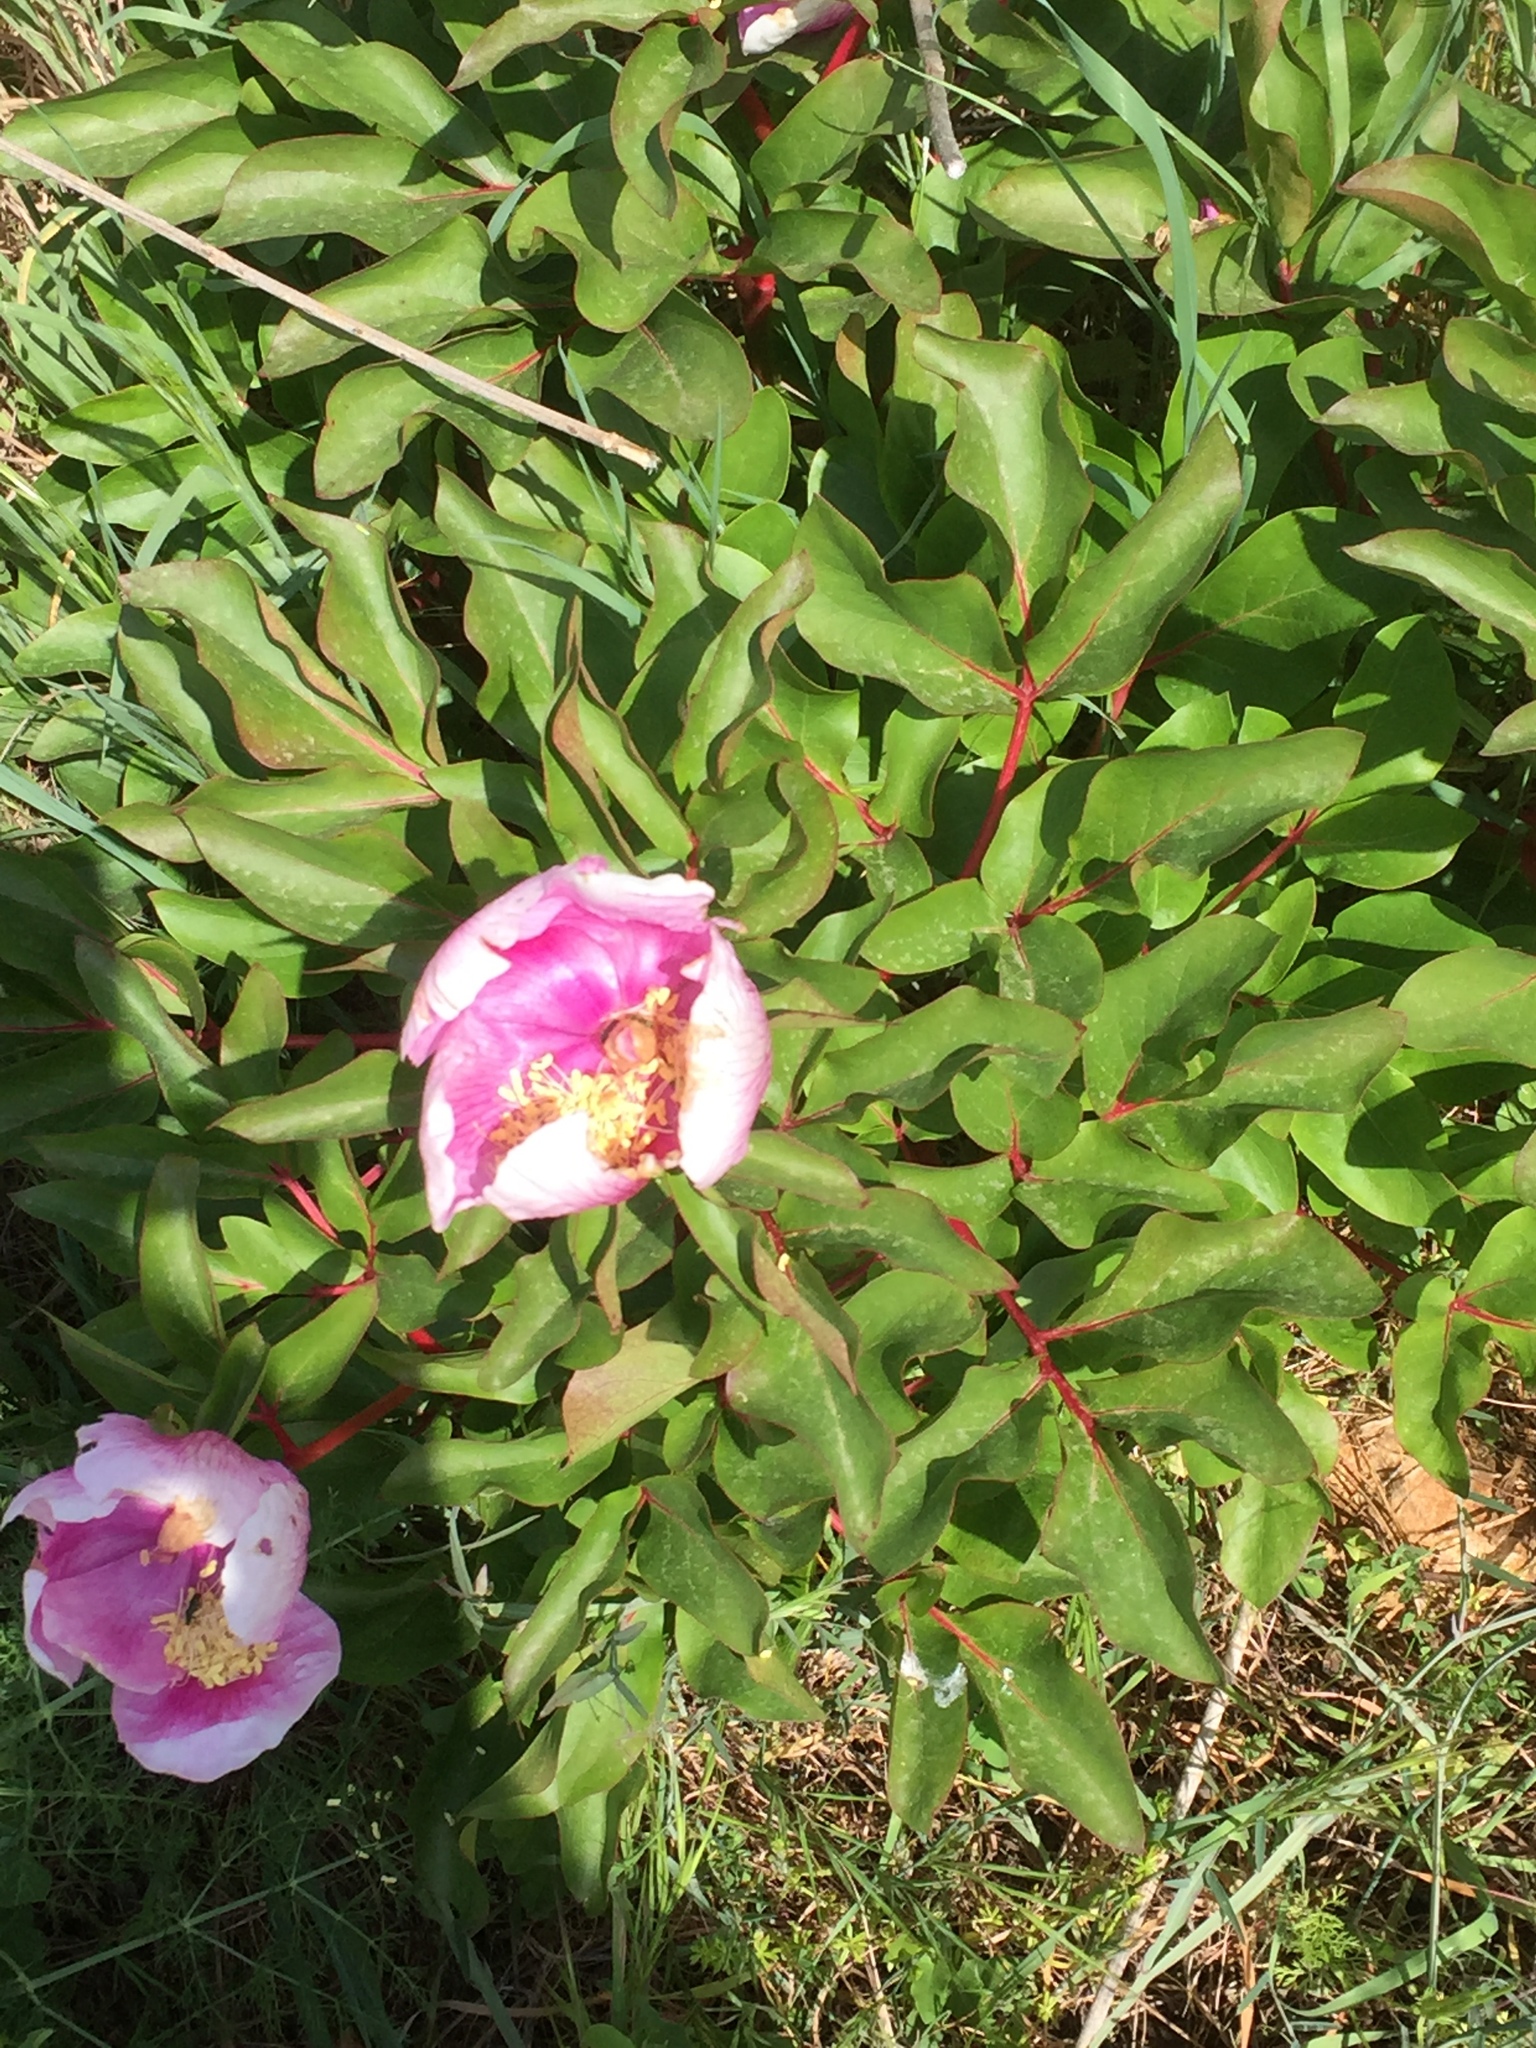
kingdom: Plantae
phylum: Tracheophyta
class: Magnoliopsida
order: Saxifragales
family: Paeoniaceae
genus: Paeonia
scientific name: Paeonia broteroi
